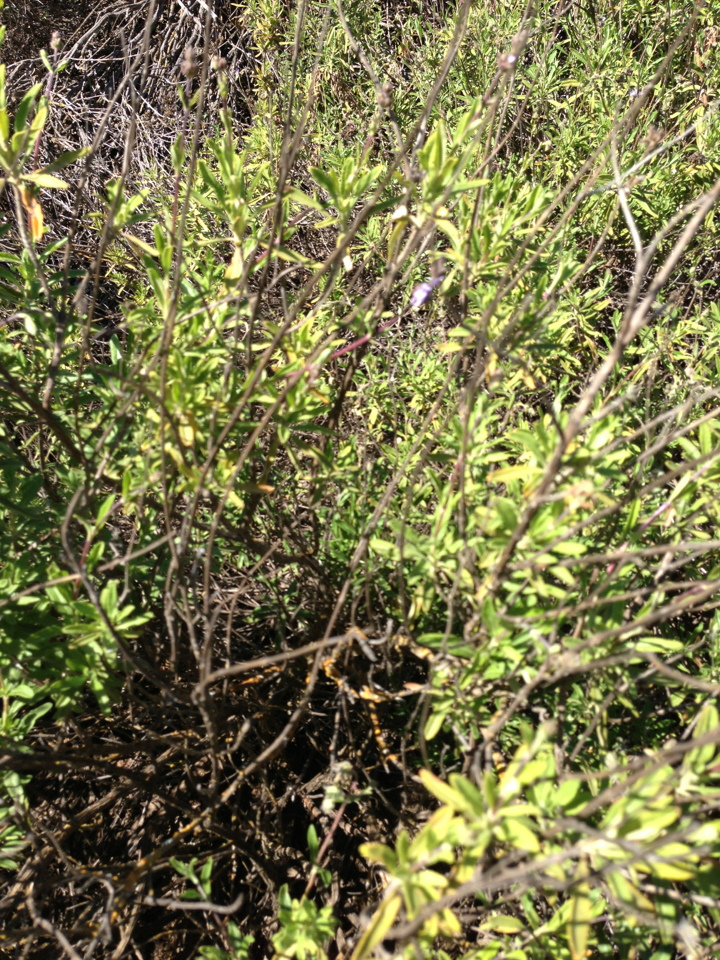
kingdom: Plantae
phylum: Tracheophyta
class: Magnoliopsida
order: Lamiales
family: Lamiaceae
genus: Salvia
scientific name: Salvia mellifera
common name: Black sage
